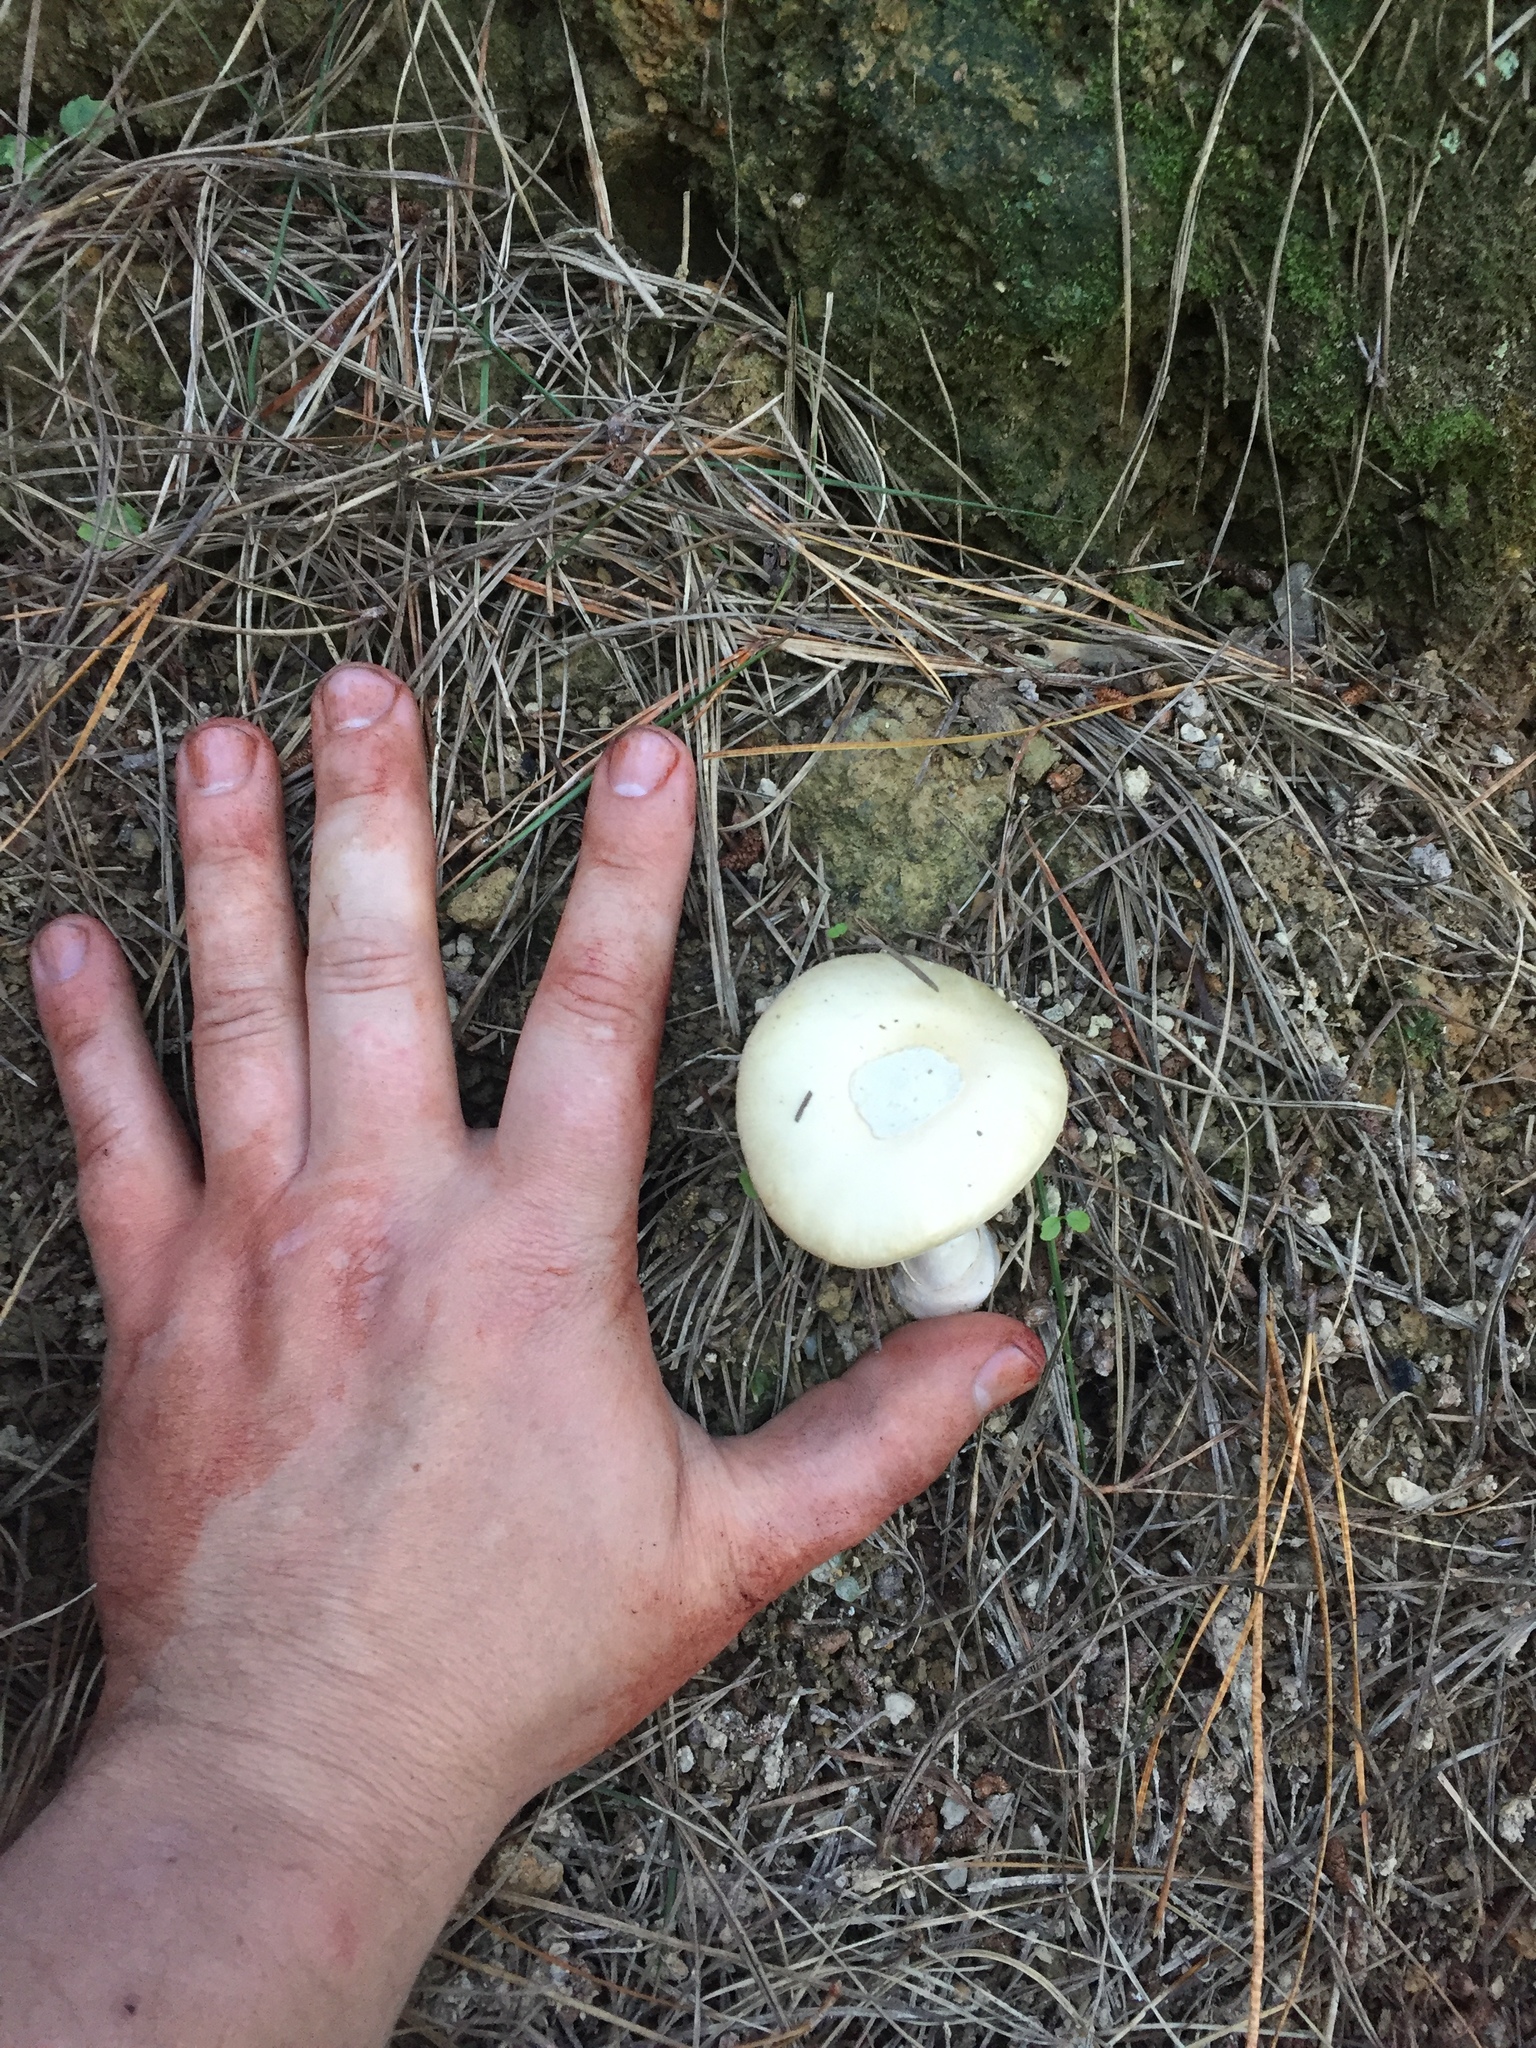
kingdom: Fungi
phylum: Basidiomycota
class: Agaricomycetes
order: Agaricales
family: Amanitaceae
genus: Amanita
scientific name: Amanita gemmata
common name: Jewelled amanita
